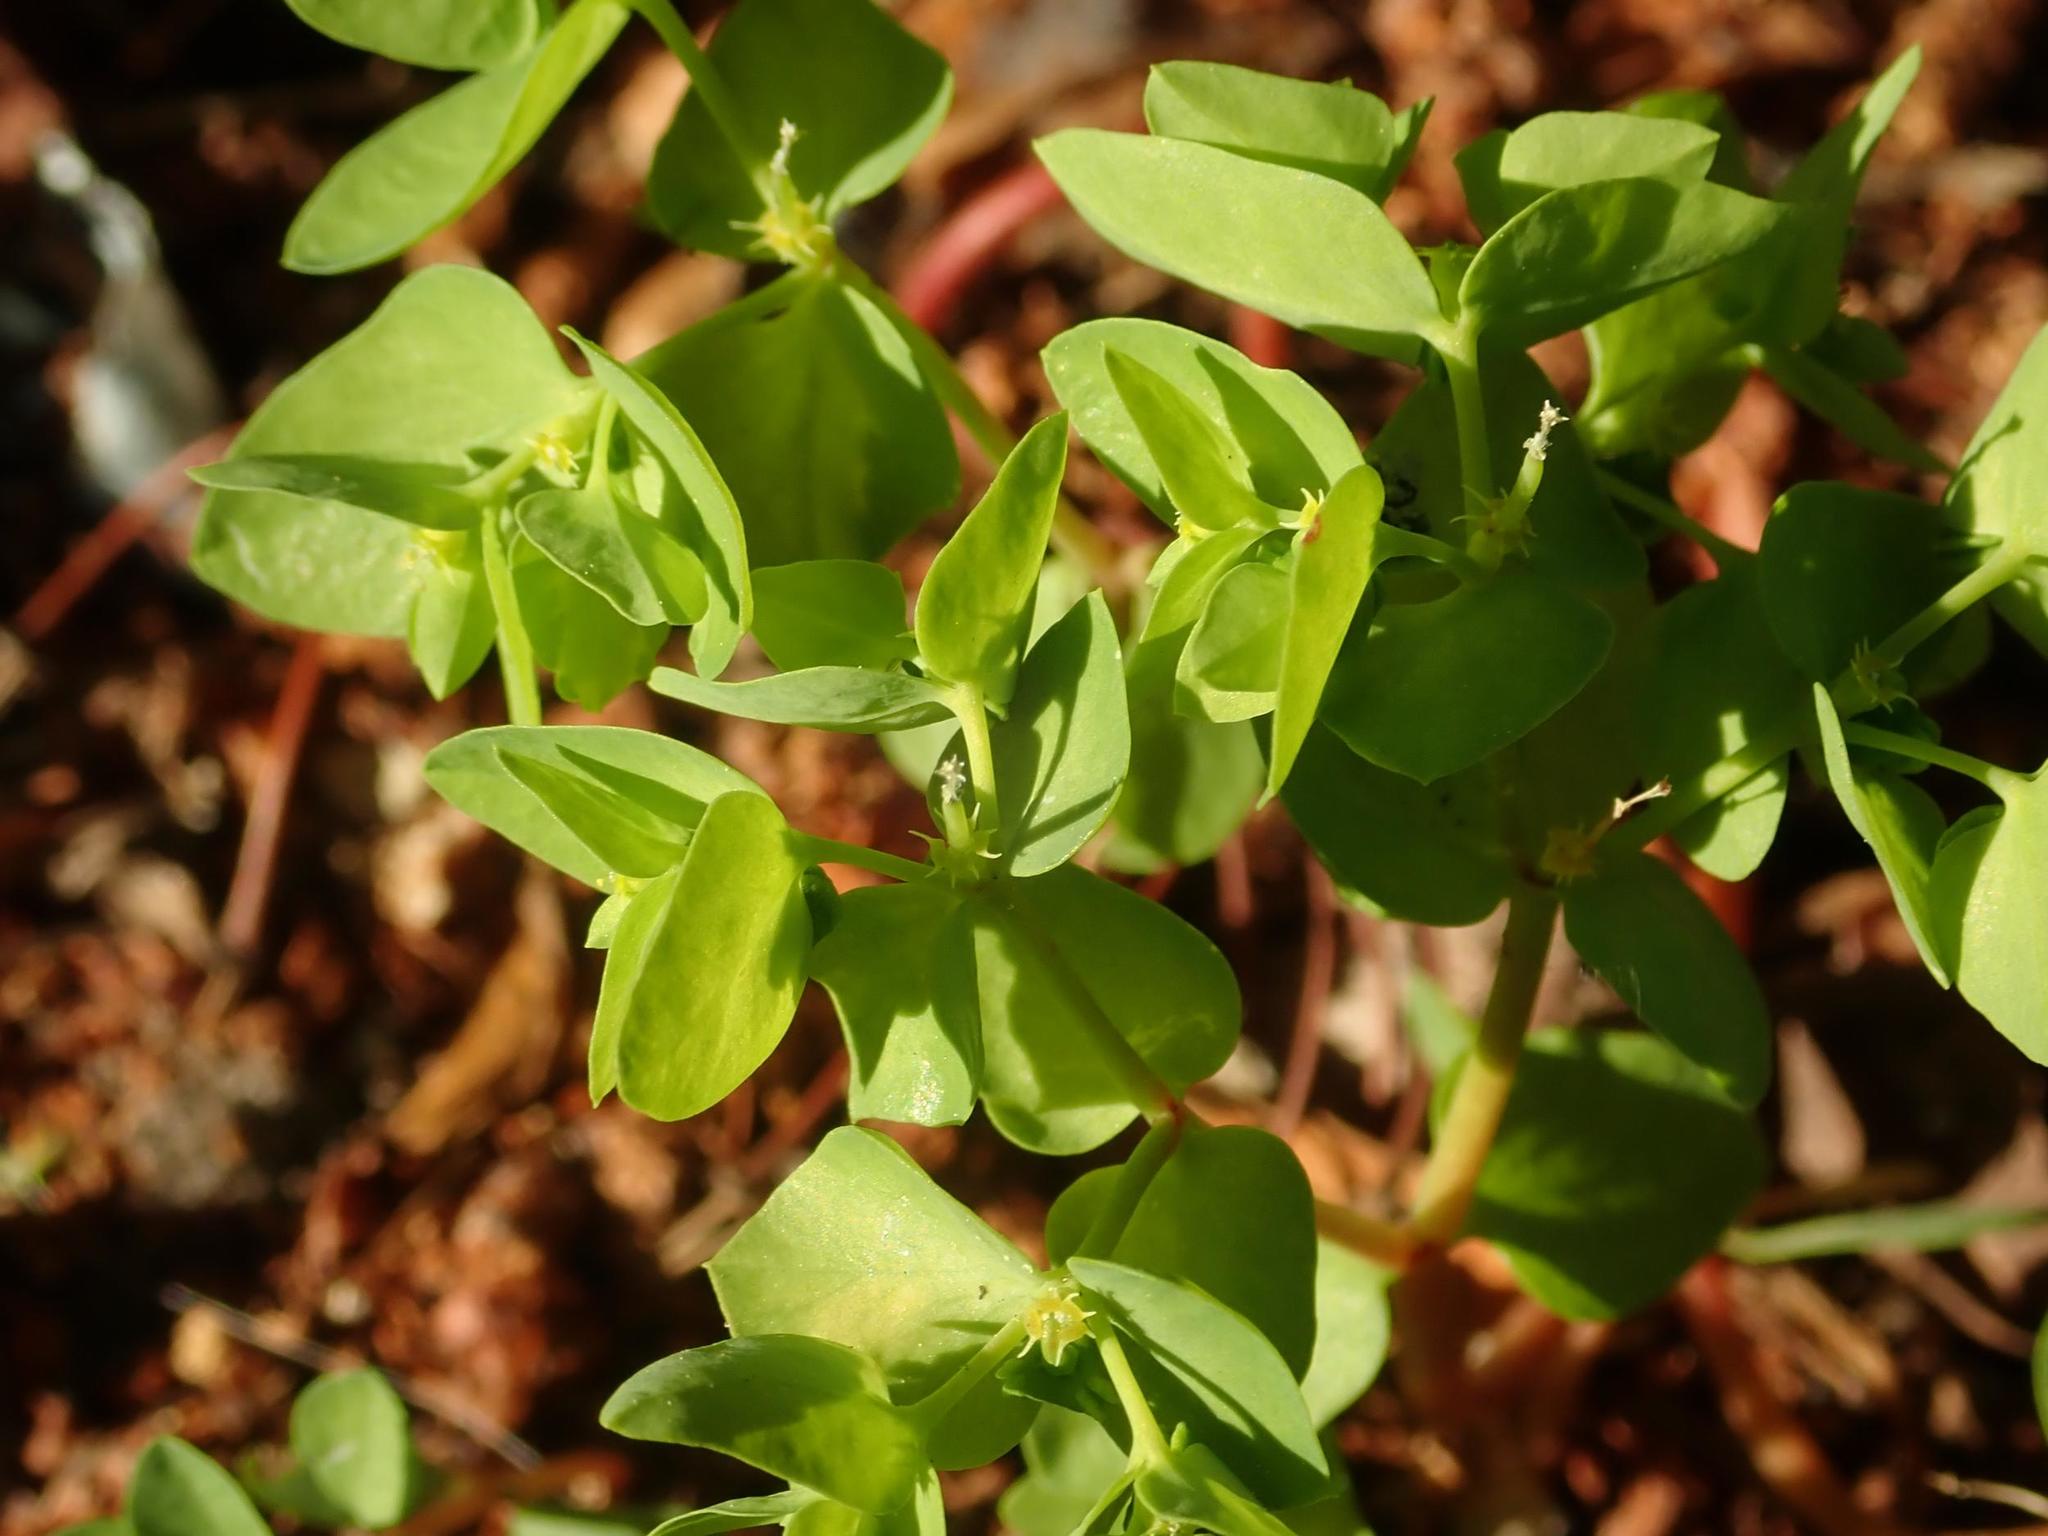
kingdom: Plantae
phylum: Tracheophyta
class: Magnoliopsida
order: Malpighiales
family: Euphorbiaceae
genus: Euphorbia
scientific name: Euphorbia peplus
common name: Petty spurge
